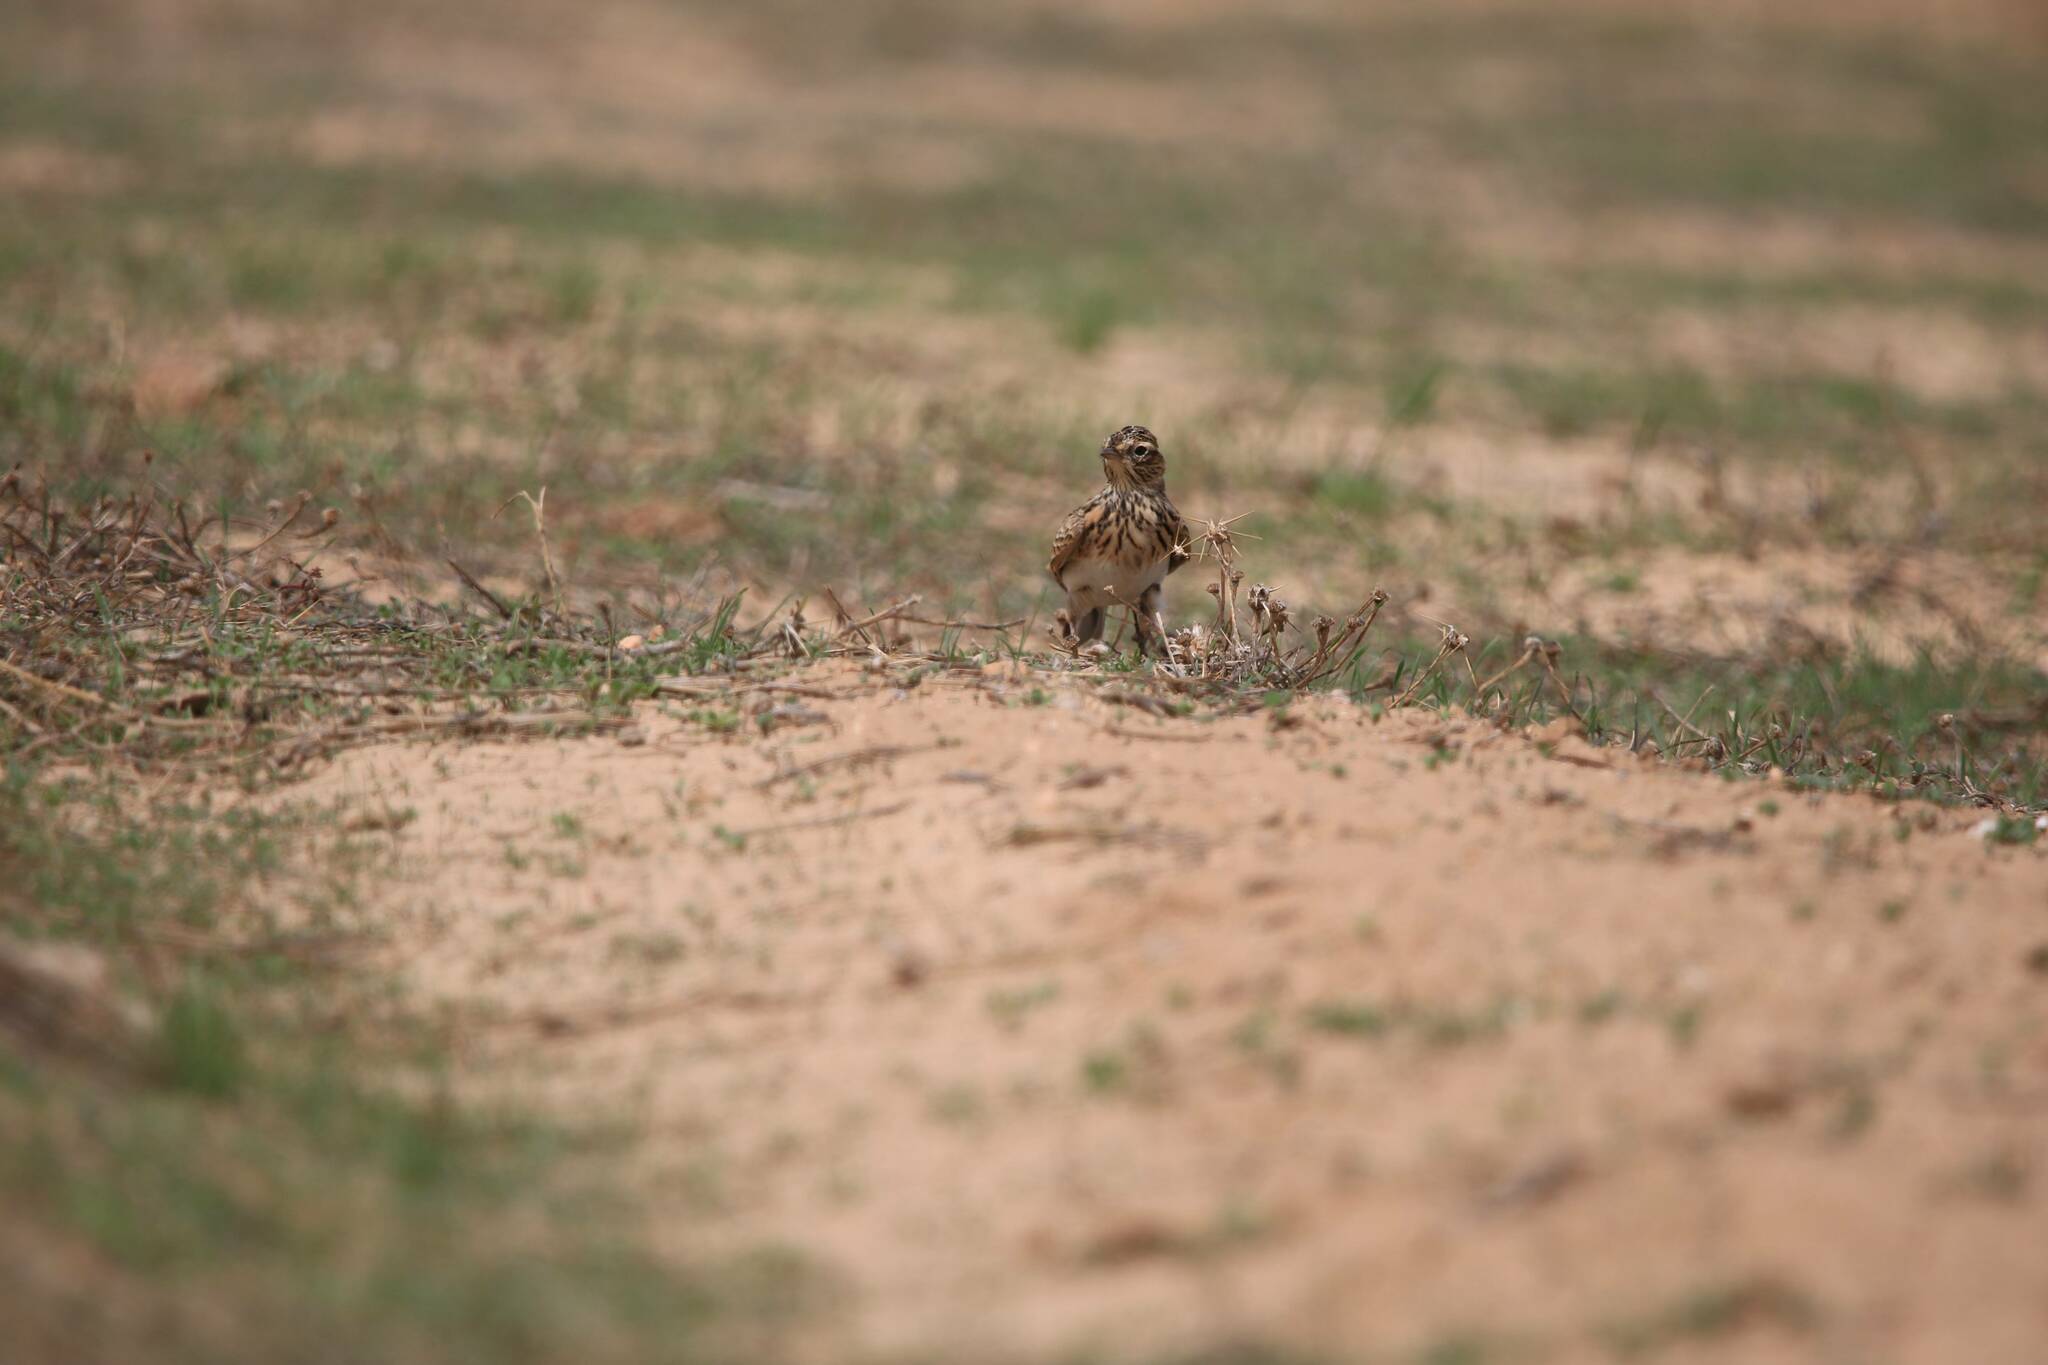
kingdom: Animalia
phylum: Chordata
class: Aves
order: Passeriformes
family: Alaudidae
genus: Alauda
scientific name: Alauda arvensis
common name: Eurasian skylark
